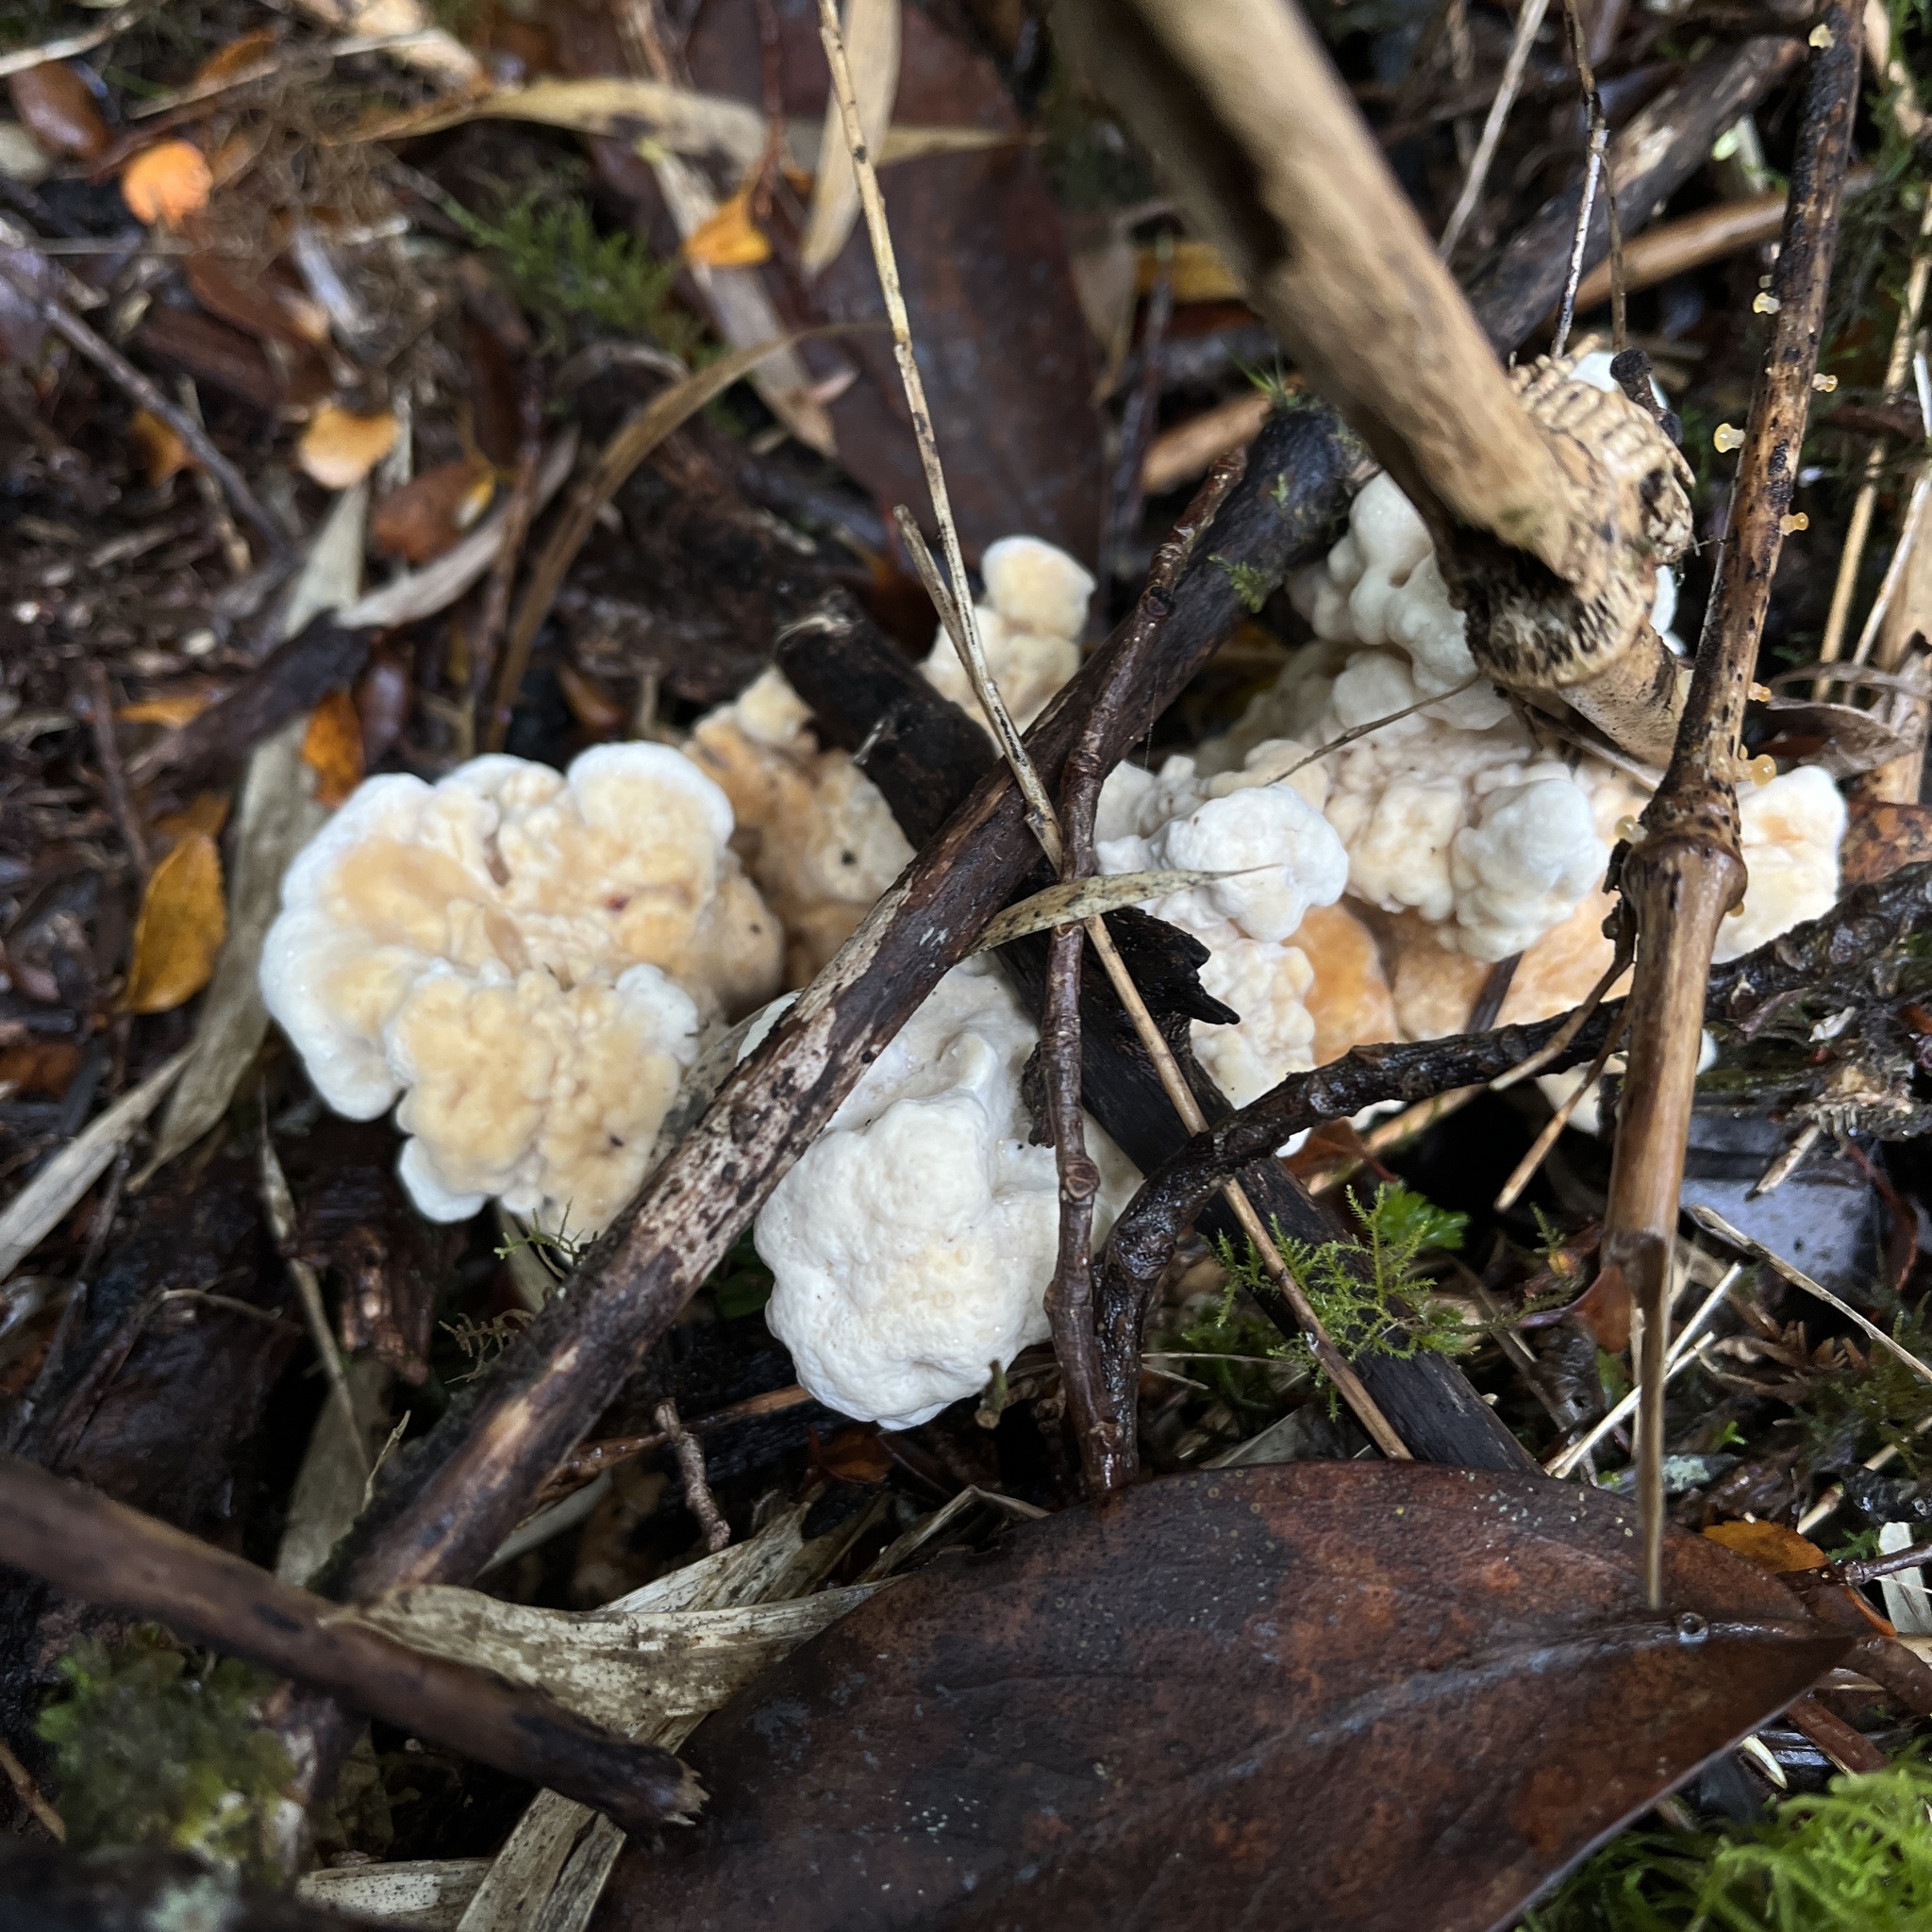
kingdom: Fungi
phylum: Basidiomycota
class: Agaricomycetes
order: Russulales
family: Bondarzewiaceae
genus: Bondarzewia
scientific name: Bondarzewia guaitecasensis
